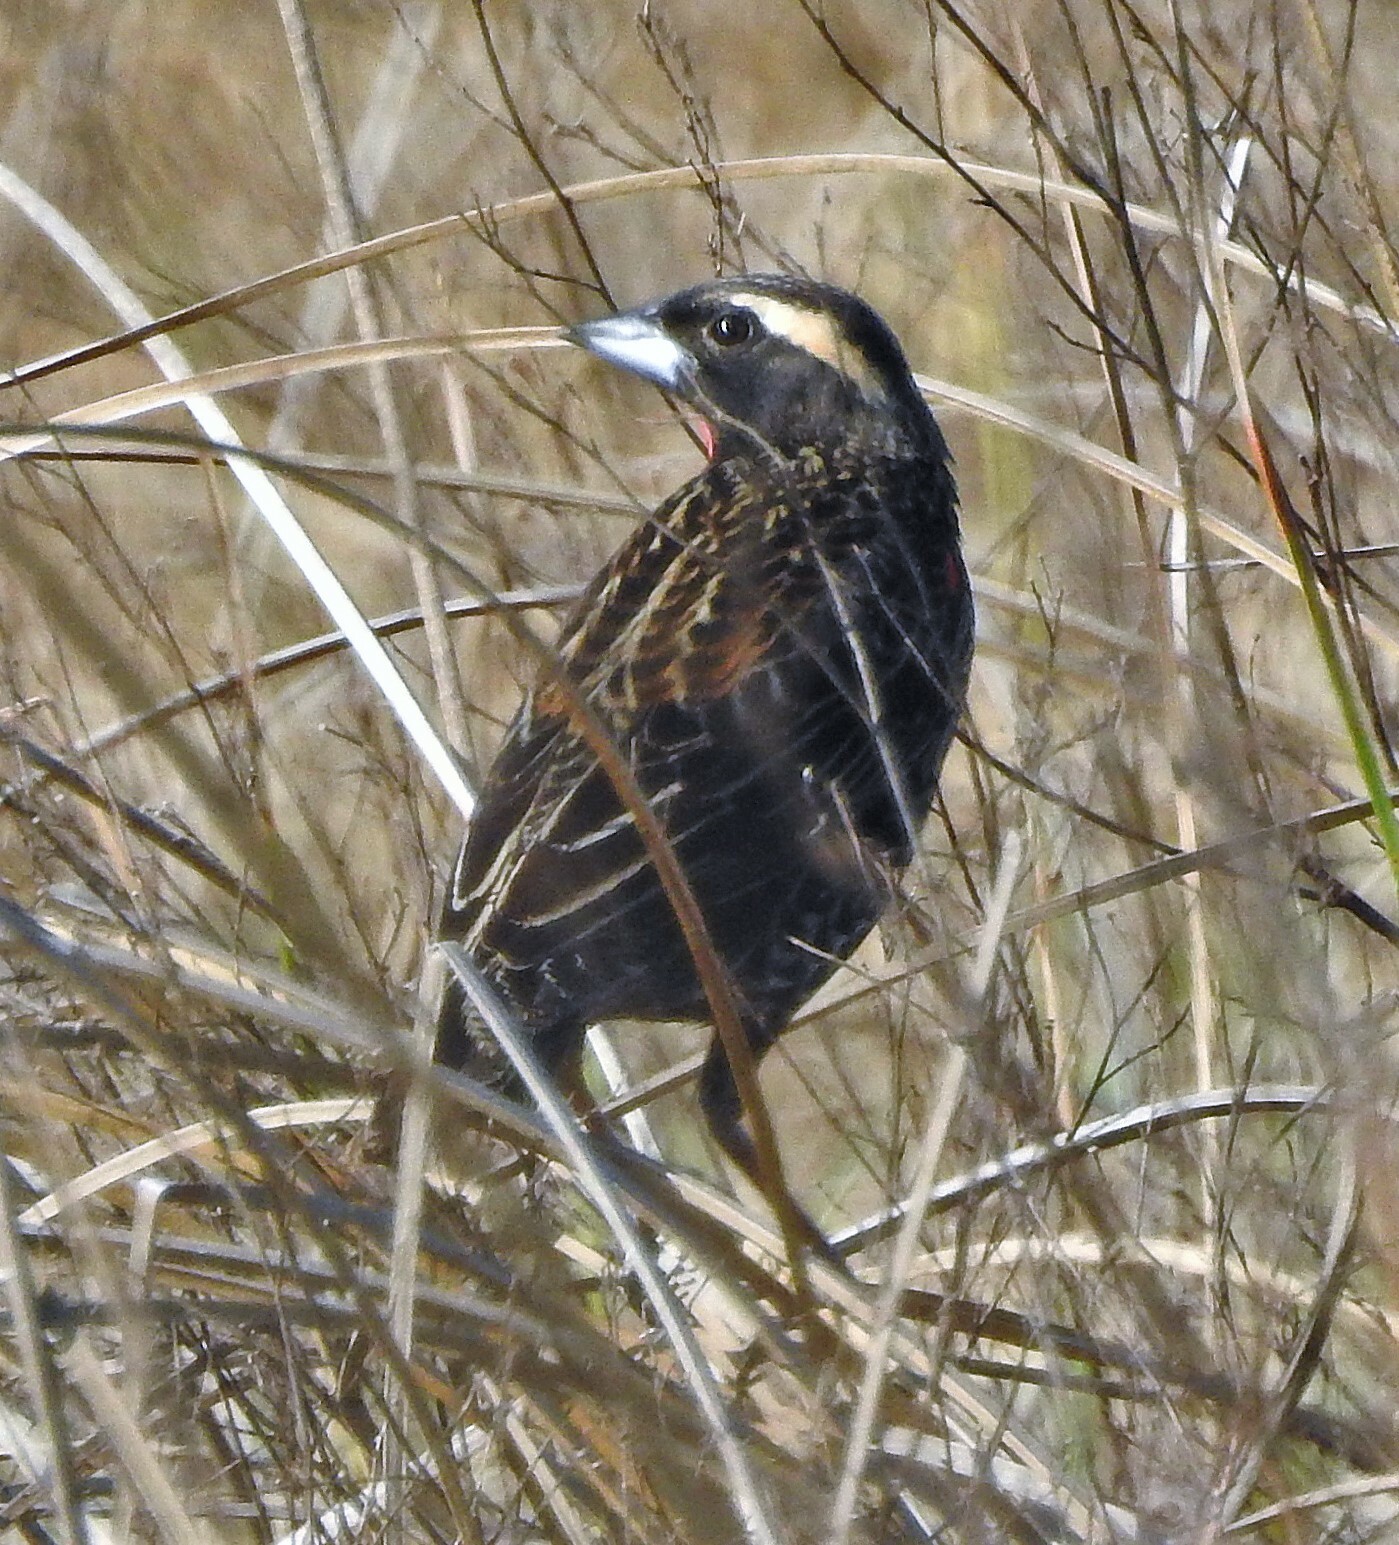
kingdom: Animalia
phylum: Chordata
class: Aves
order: Passeriformes
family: Icteridae
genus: Sturnella
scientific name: Sturnella superciliaris
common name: White-browed blackbird
